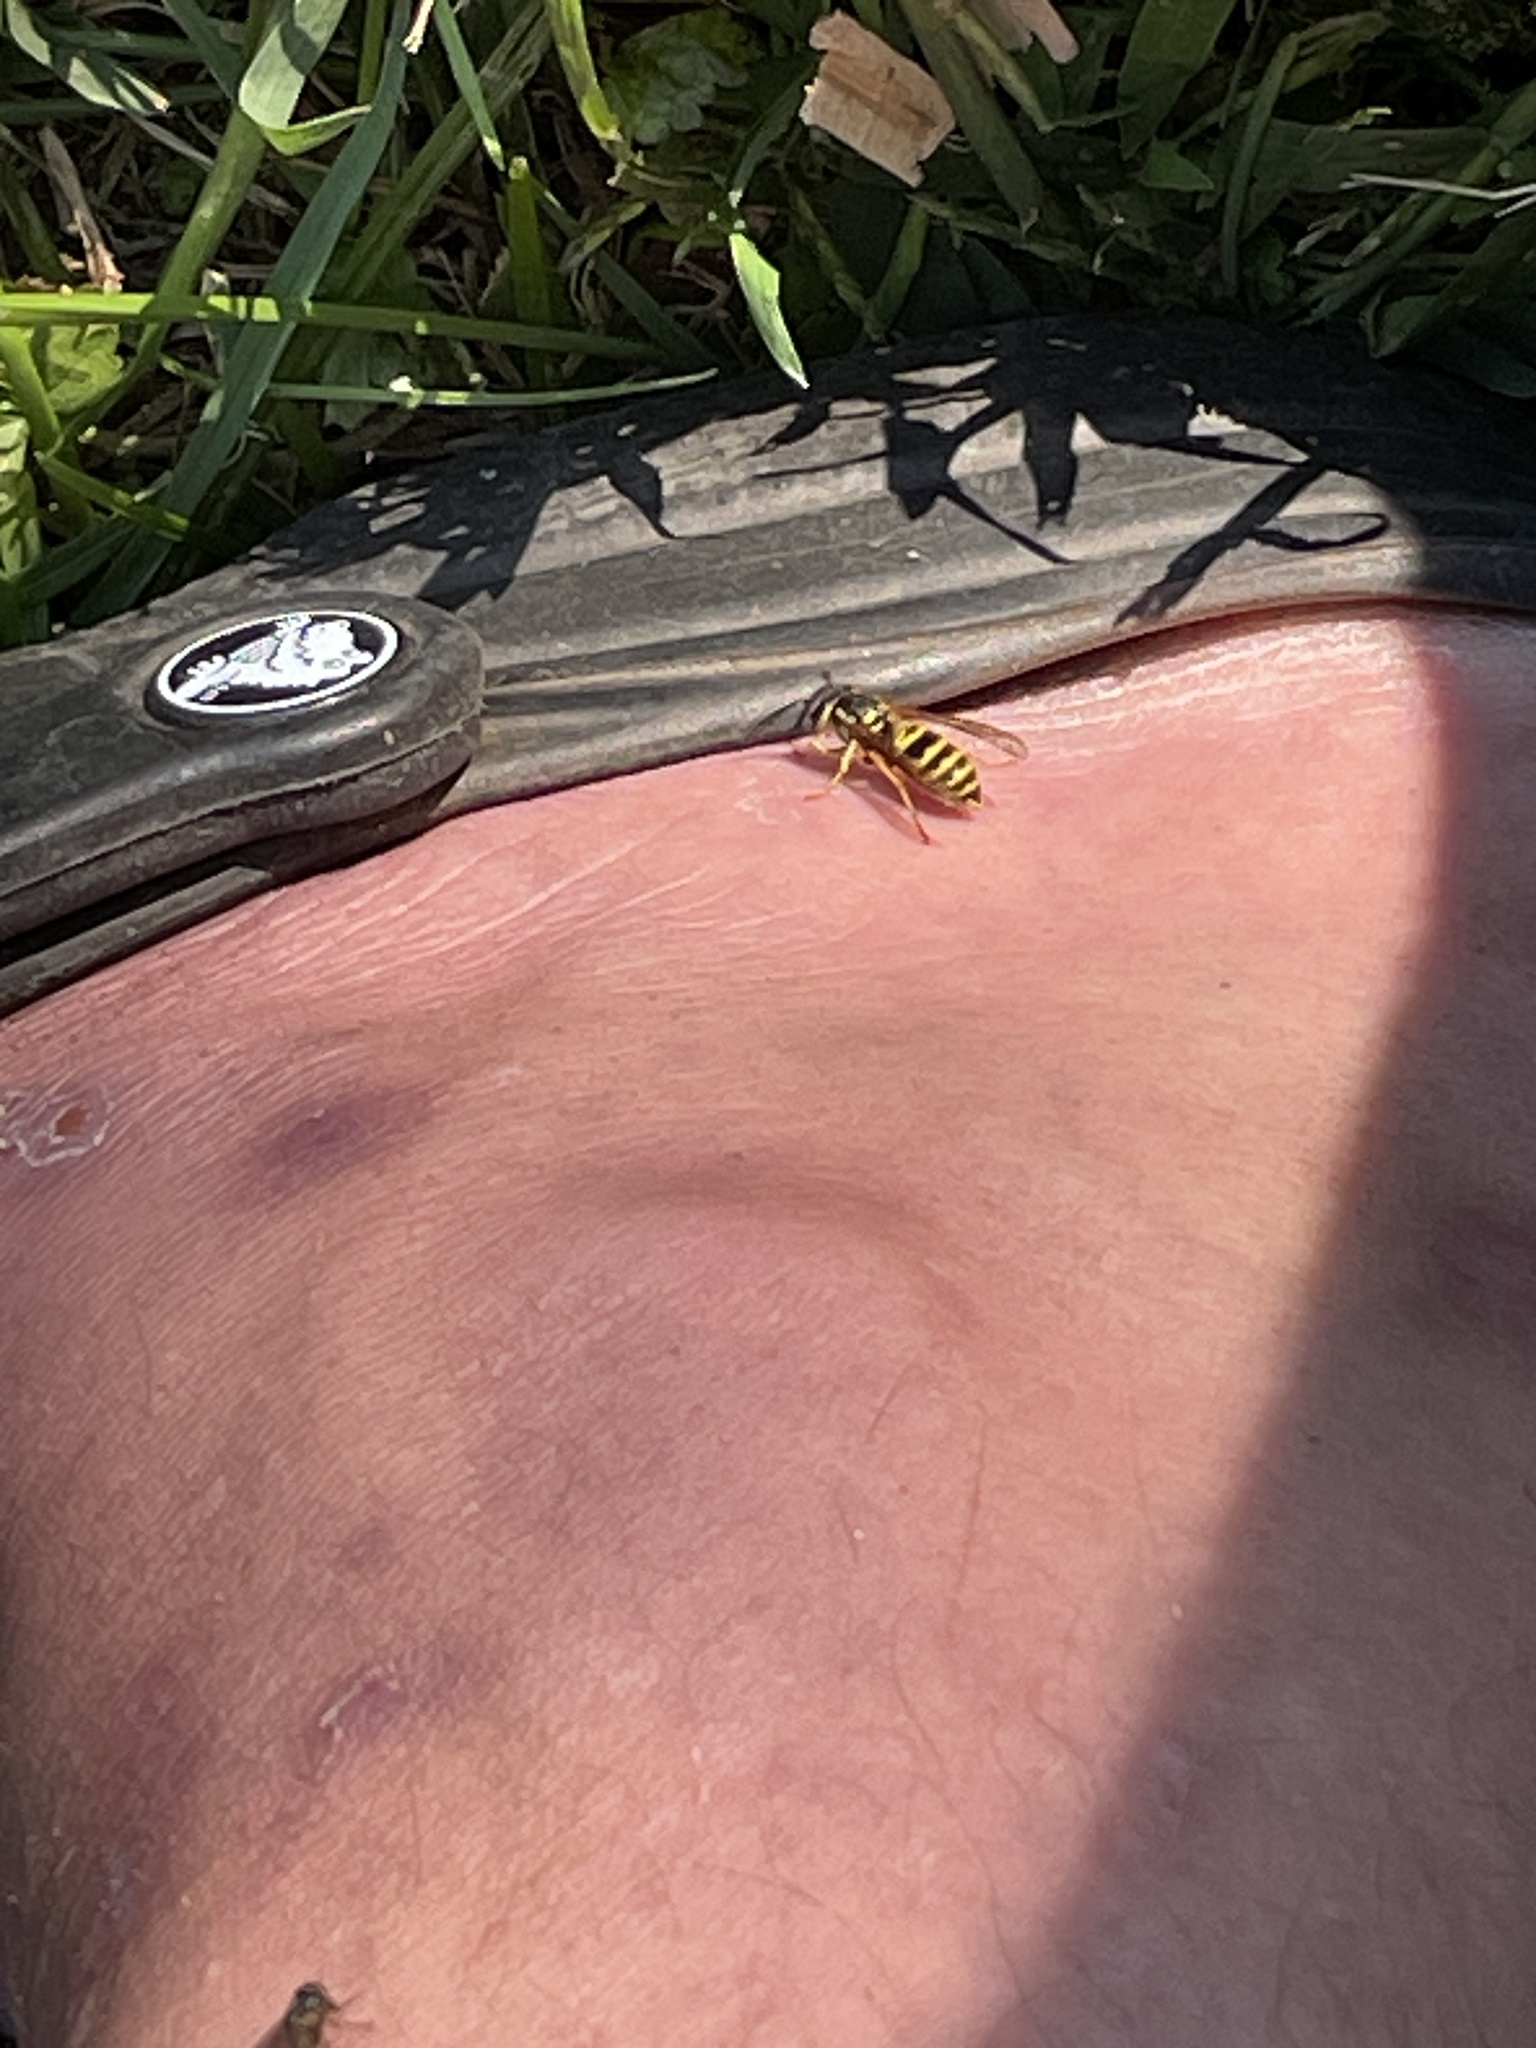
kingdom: Animalia
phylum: Arthropoda
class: Insecta
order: Hymenoptera
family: Vespidae
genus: Vespula
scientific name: Vespula maculifrons
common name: Eastern yellowjacket
